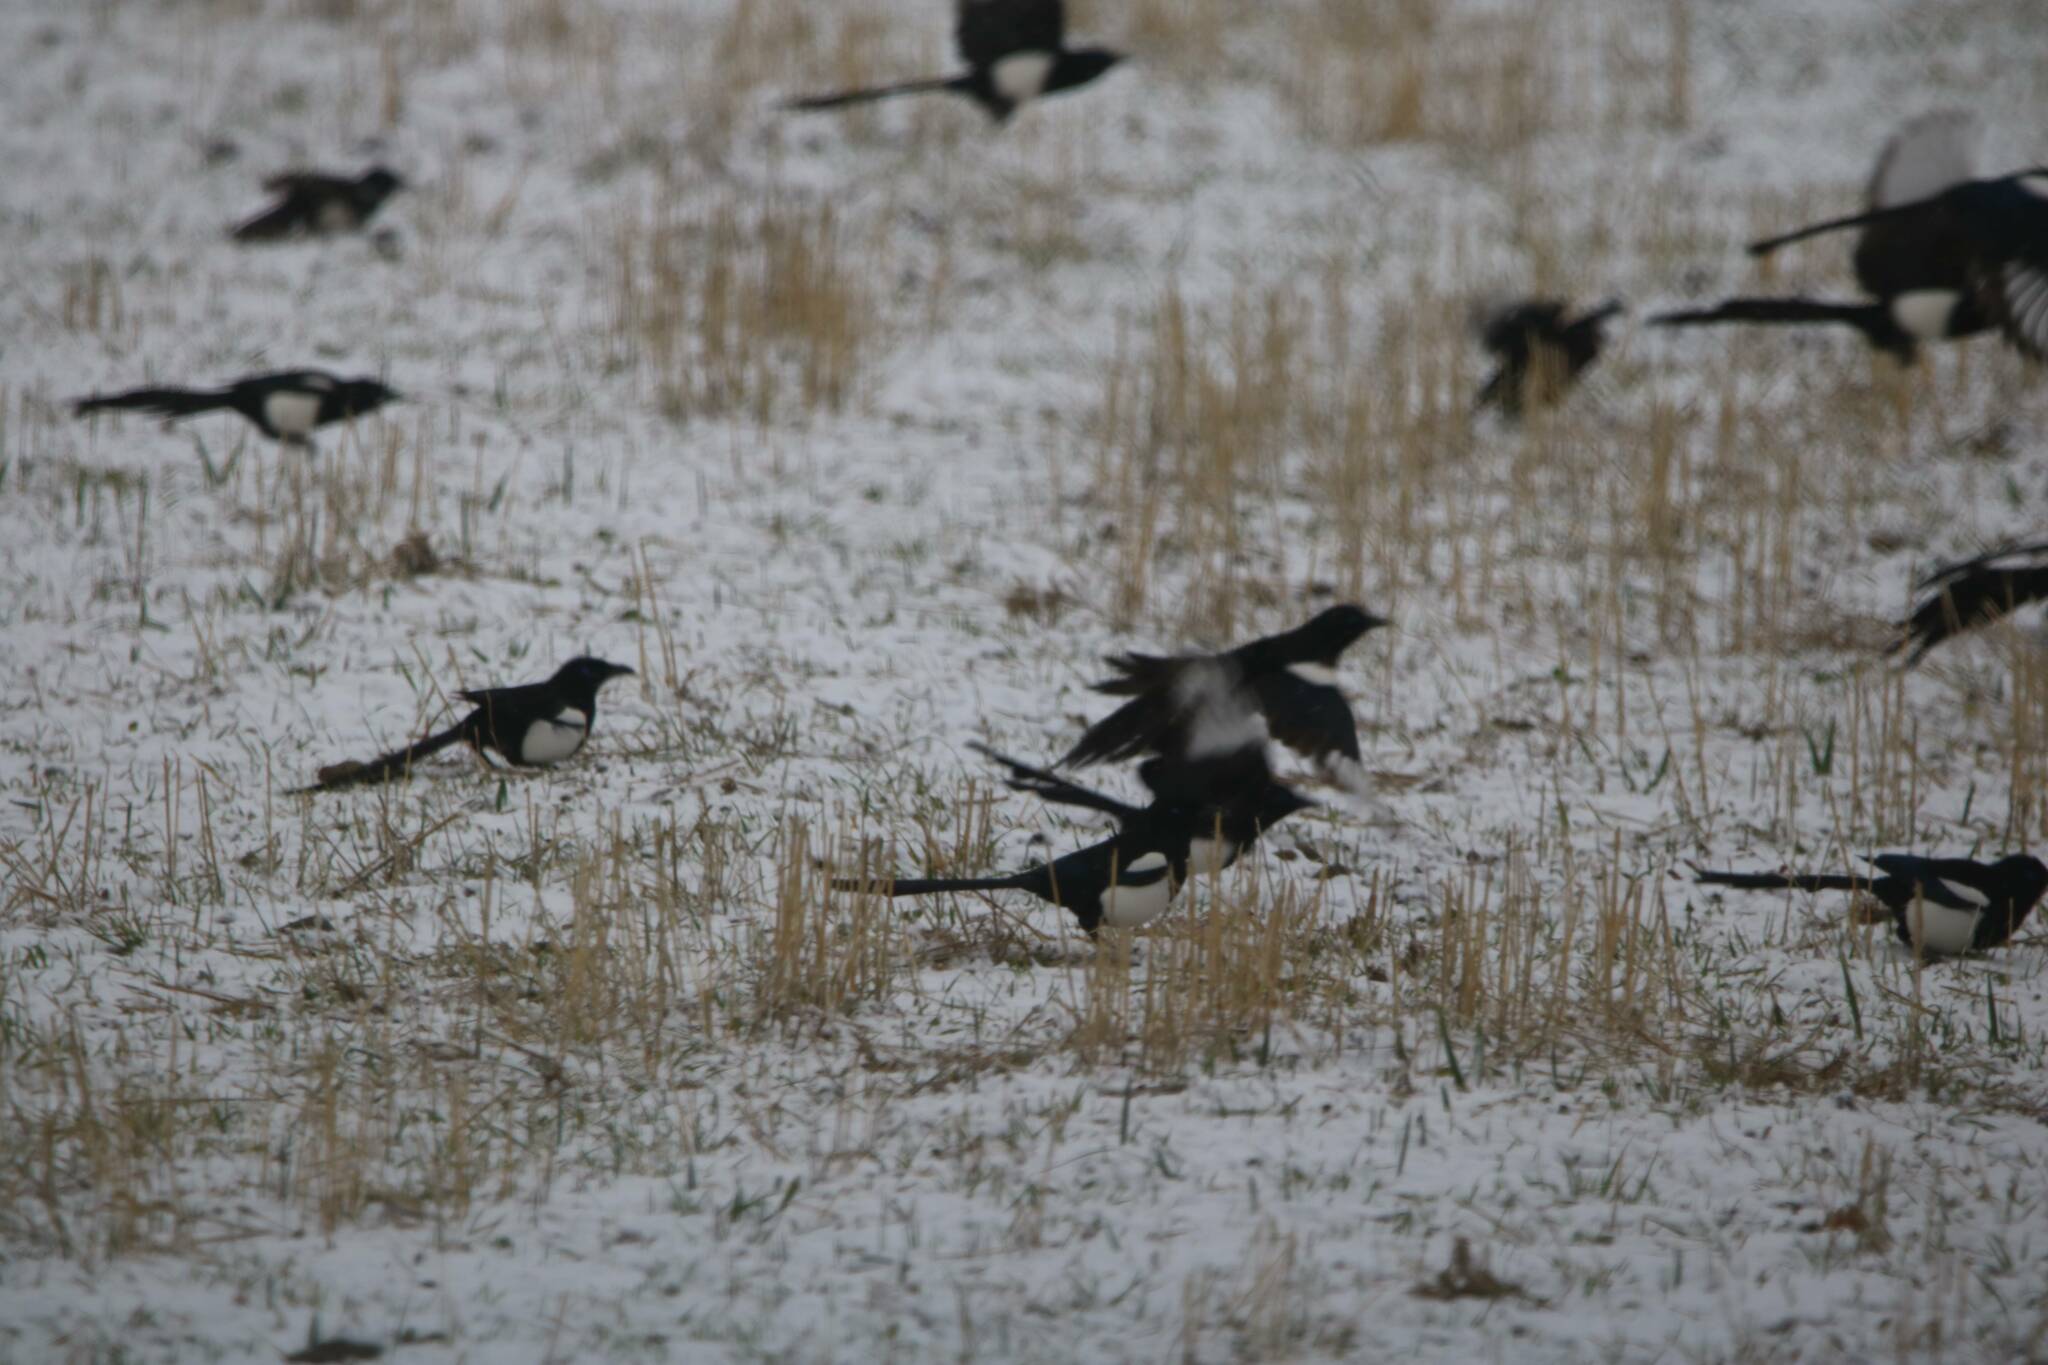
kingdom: Animalia
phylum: Chordata
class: Aves
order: Passeriformes
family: Corvidae
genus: Pica
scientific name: Pica mauritanica
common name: Maghreb magpie
